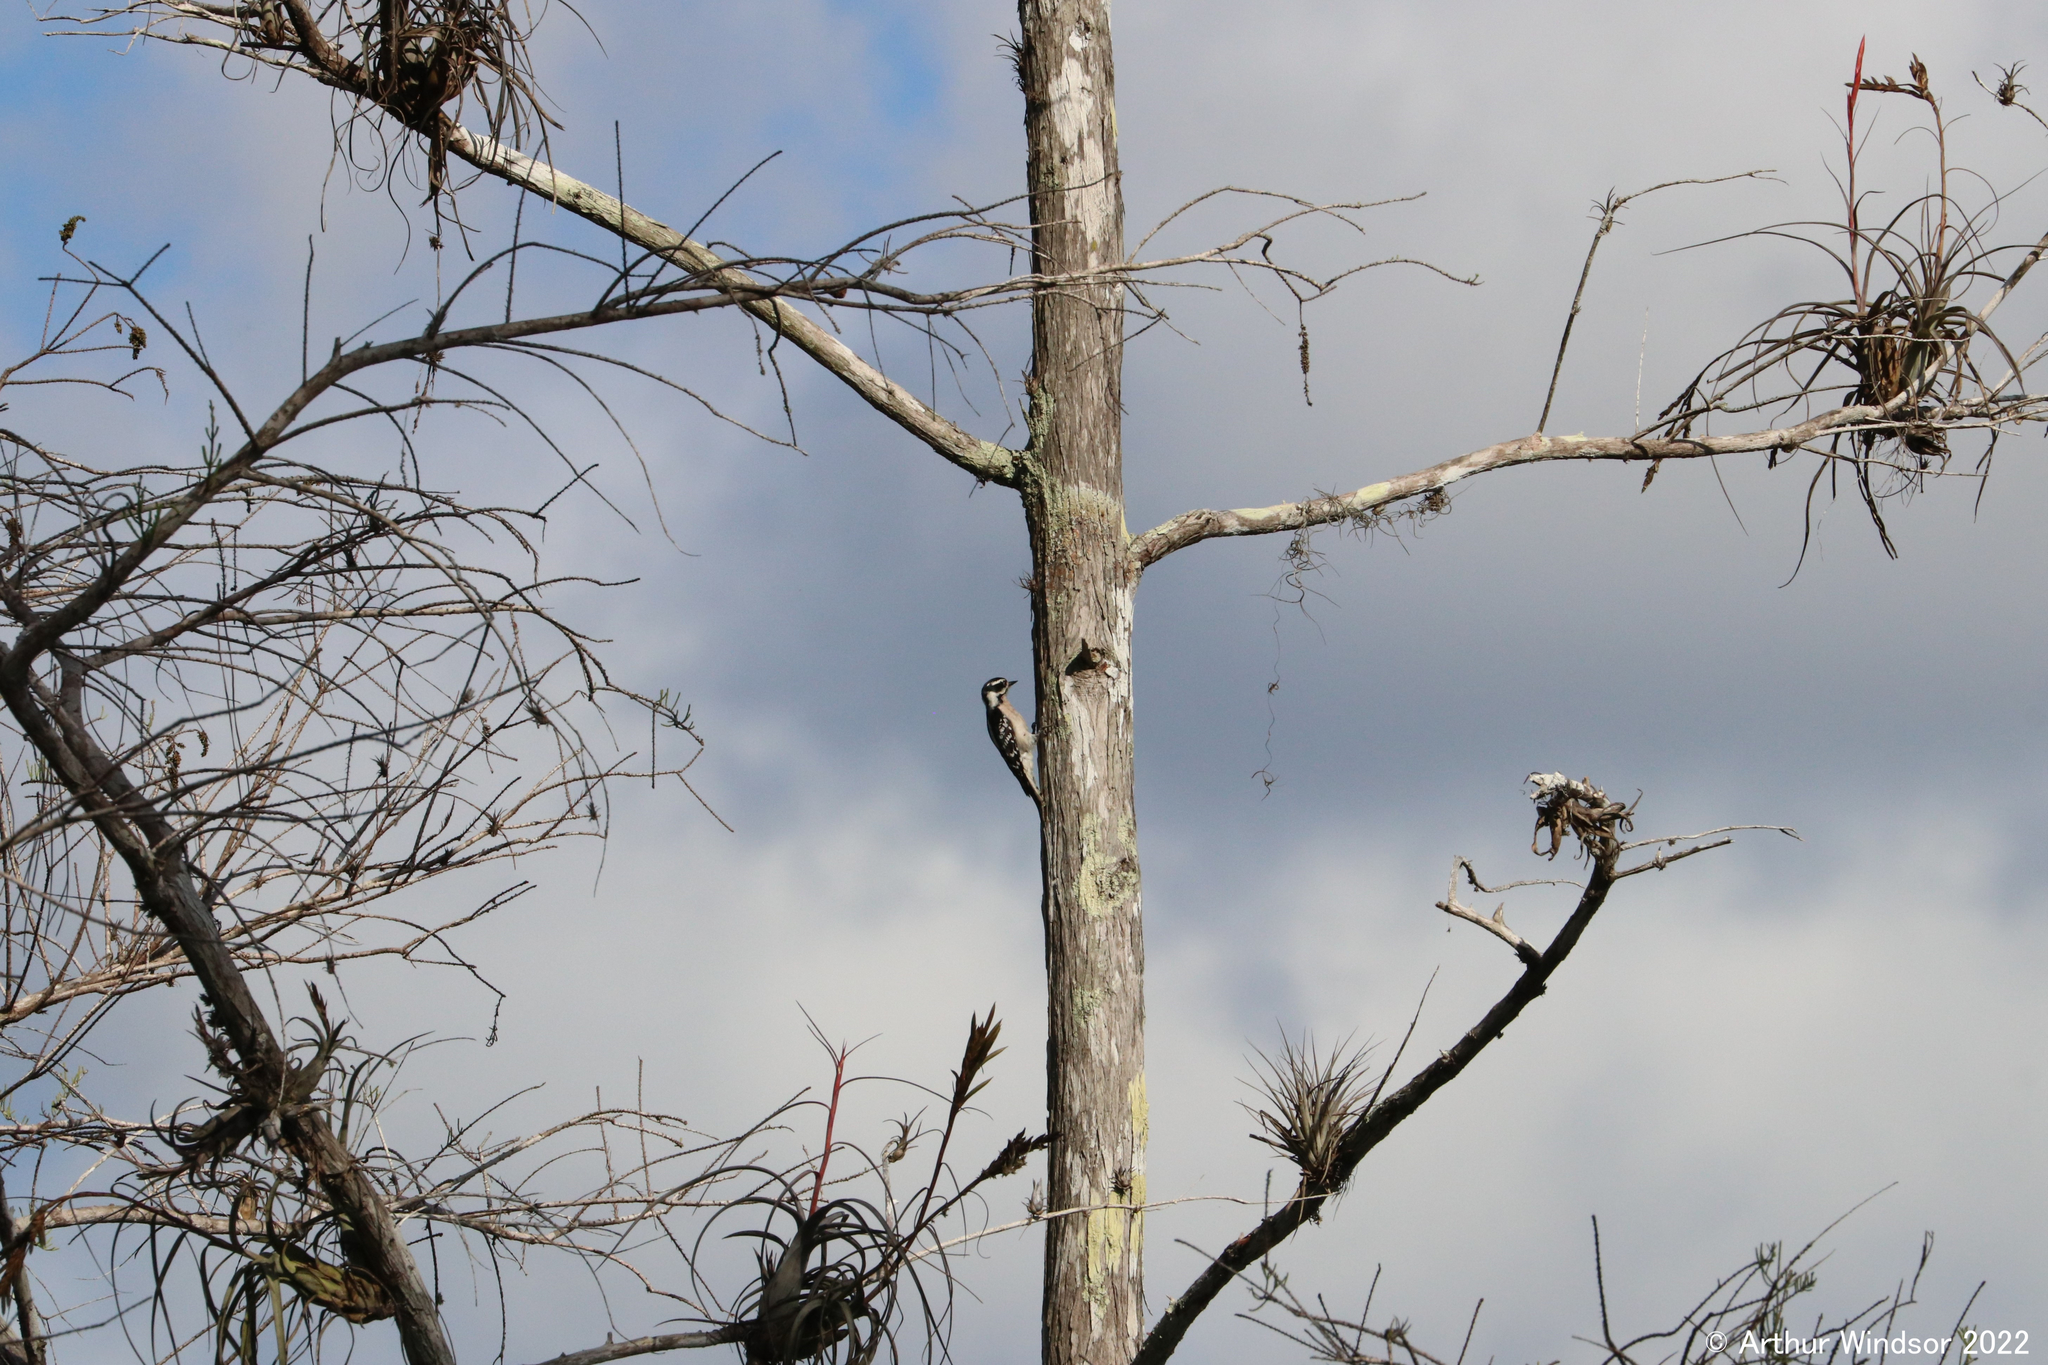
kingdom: Animalia
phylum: Chordata
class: Aves
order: Piciformes
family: Picidae
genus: Dryobates
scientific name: Dryobates pubescens
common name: Downy woodpecker
